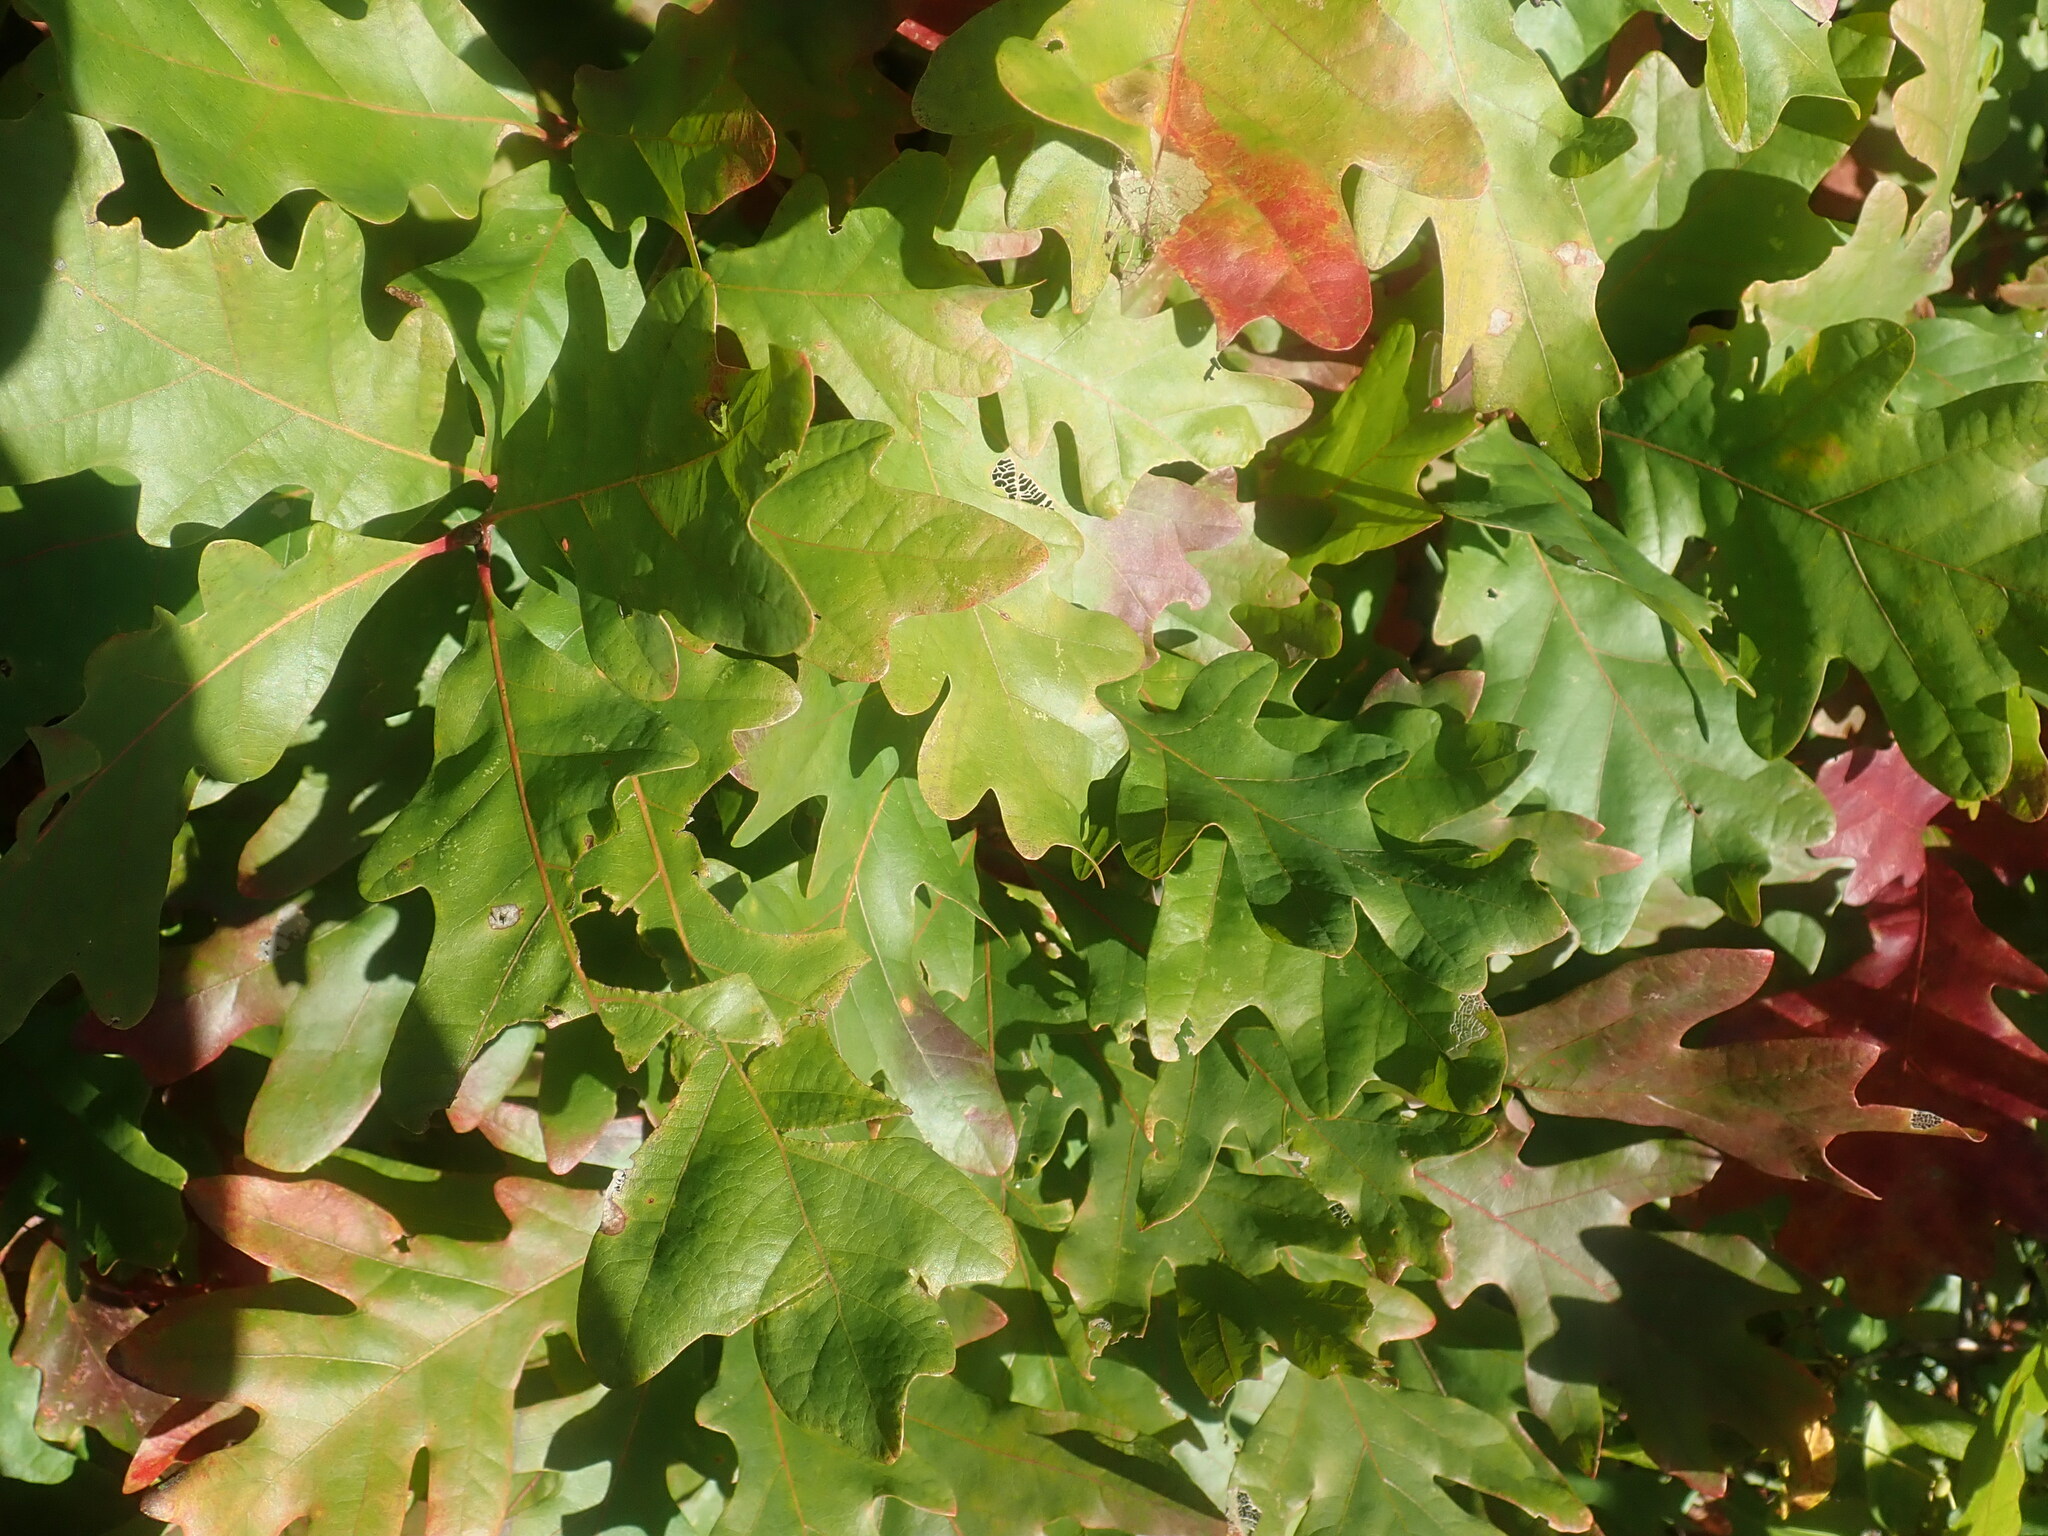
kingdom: Plantae
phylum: Tracheophyta
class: Magnoliopsida
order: Fagales
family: Fagaceae
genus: Quercus
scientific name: Quercus alba
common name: White oak
